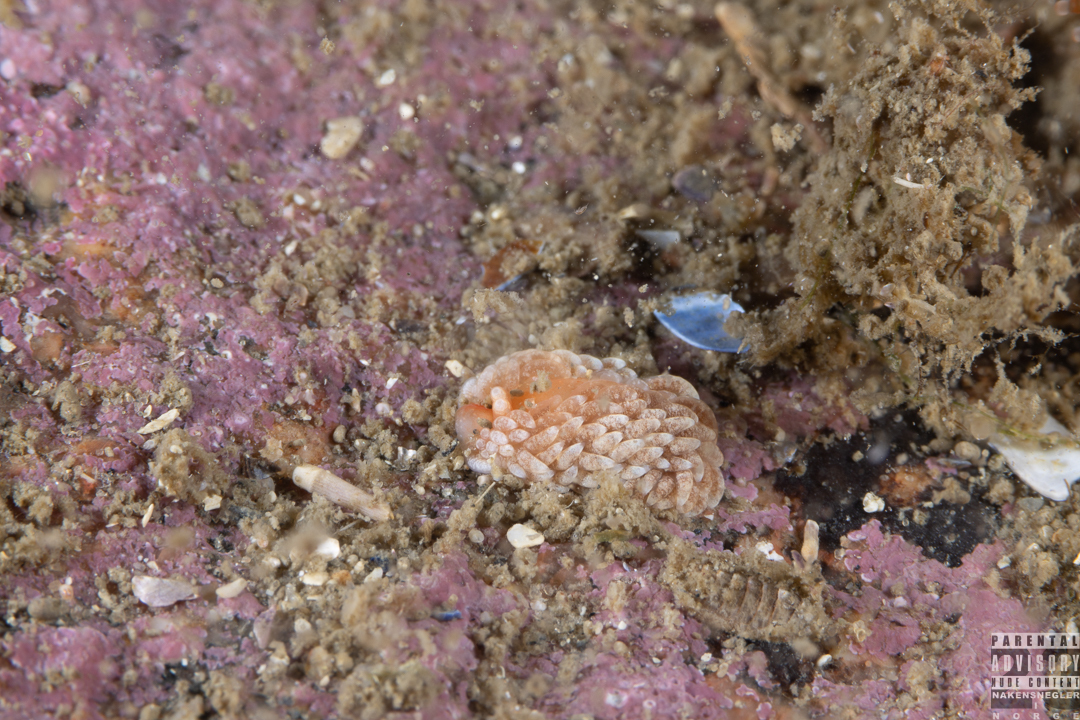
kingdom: Animalia
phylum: Mollusca
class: Gastropoda
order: Nudibranchia
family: Aeolidiidae
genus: Aeolidiella
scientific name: Aeolidiella glauca
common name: Orange-brown aeolid
